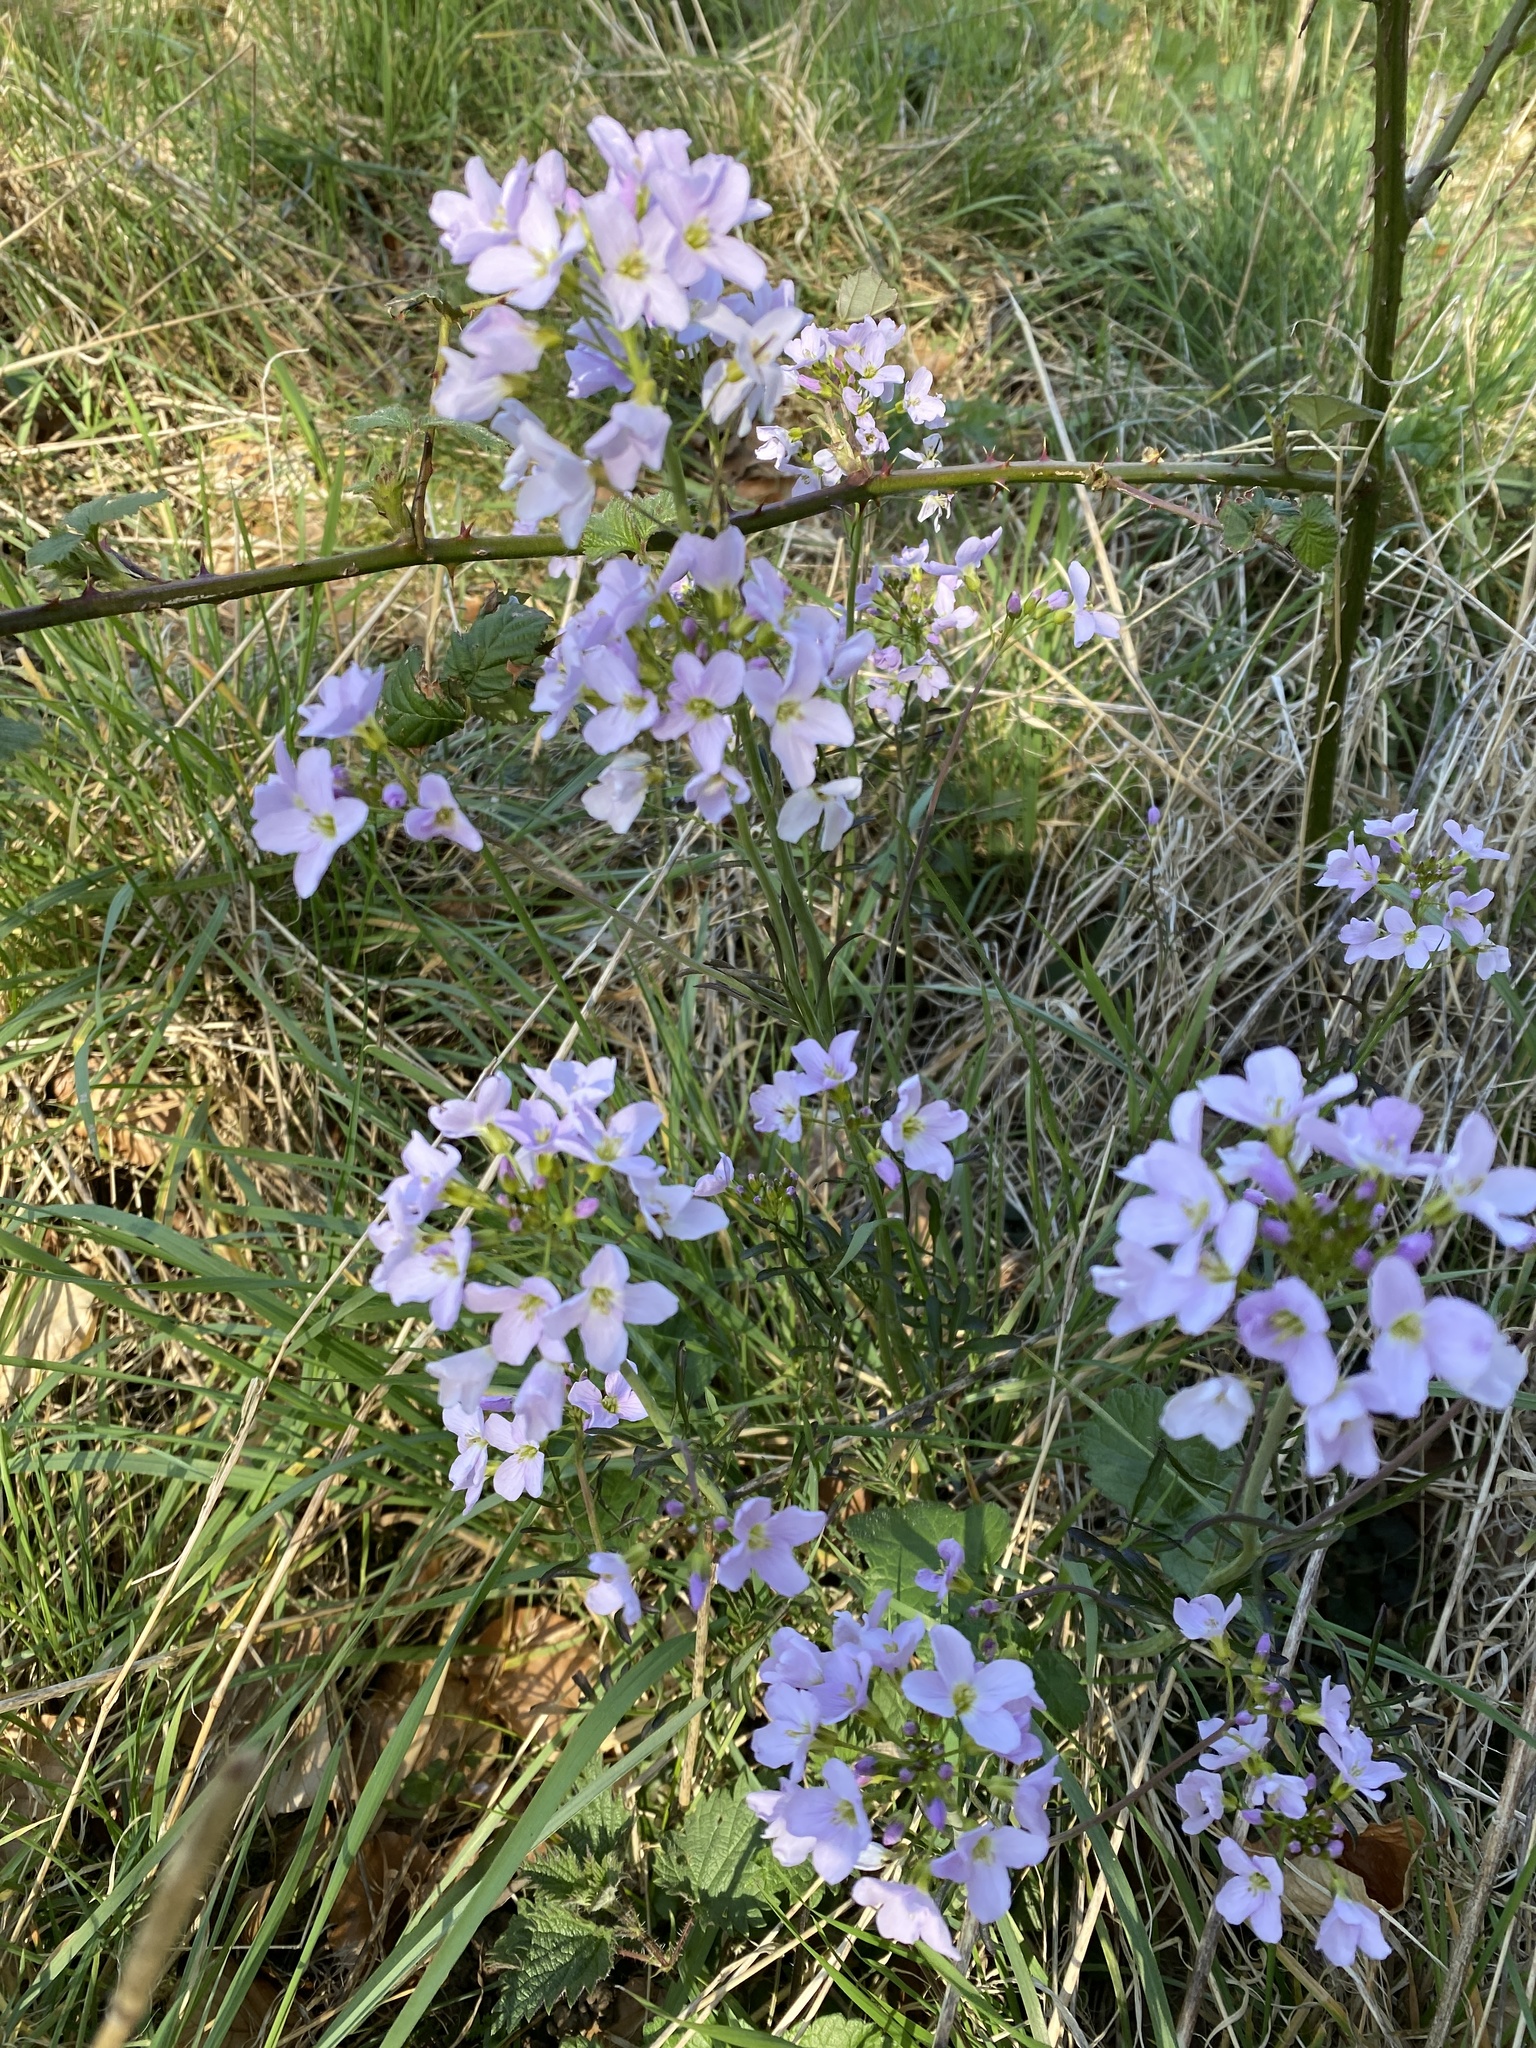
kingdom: Plantae
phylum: Tracheophyta
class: Magnoliopsida
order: Brassicales
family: Brassicaceae
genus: Cardamine
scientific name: Cardamine pratensis
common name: Cuckoo flower
